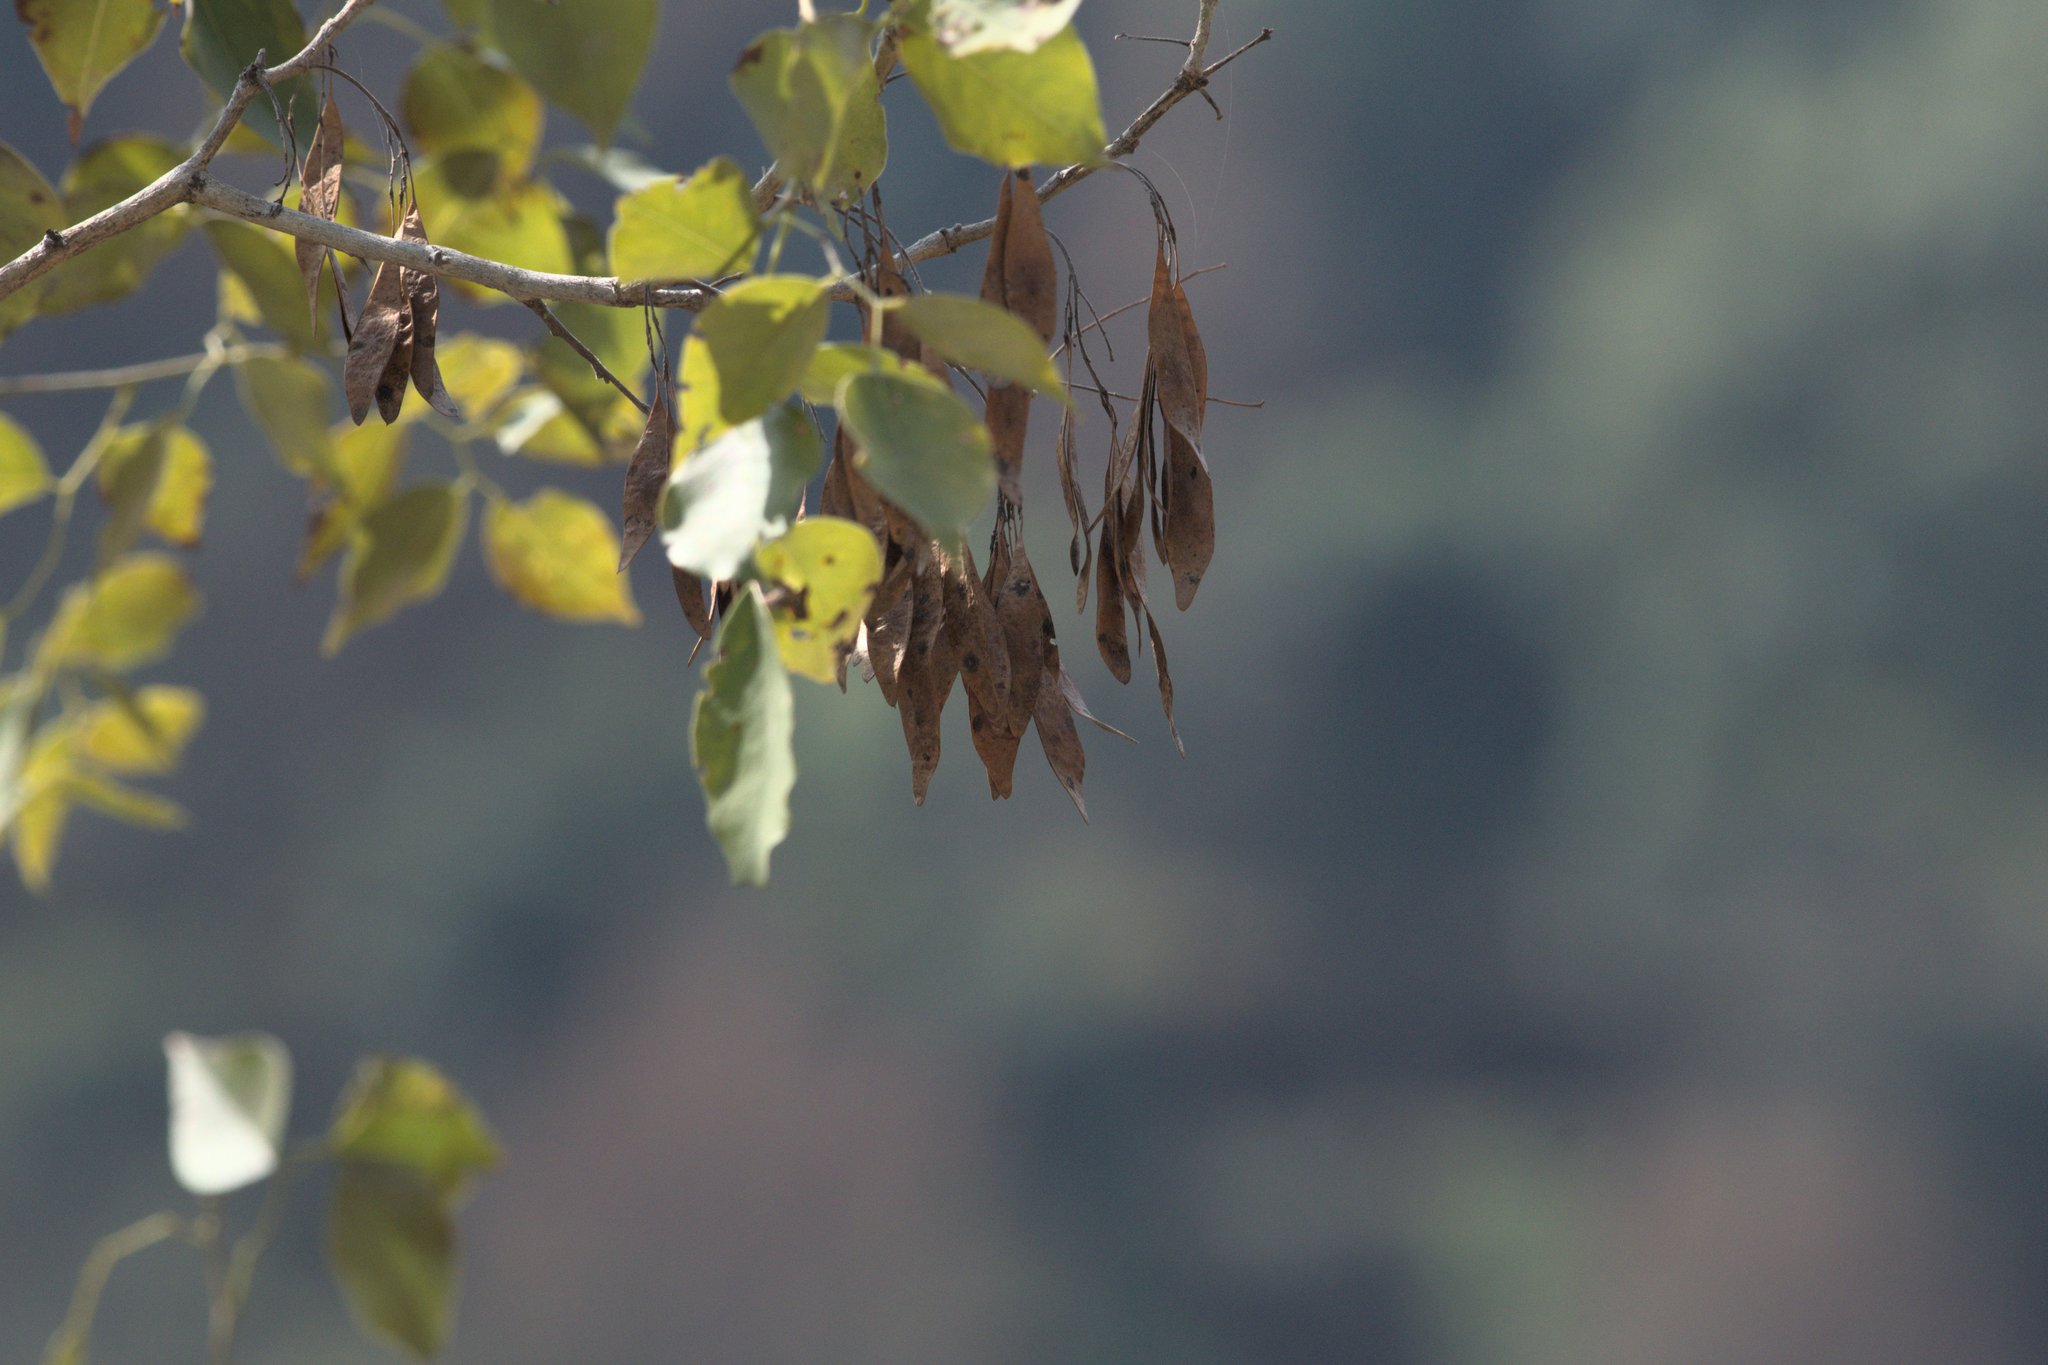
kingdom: Plantae
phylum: Tracheophyta
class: Magnoliopsida
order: Fabales
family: Fabaceae
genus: Dalbergia
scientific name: Dalbergia sissoo
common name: Indian rosewood
